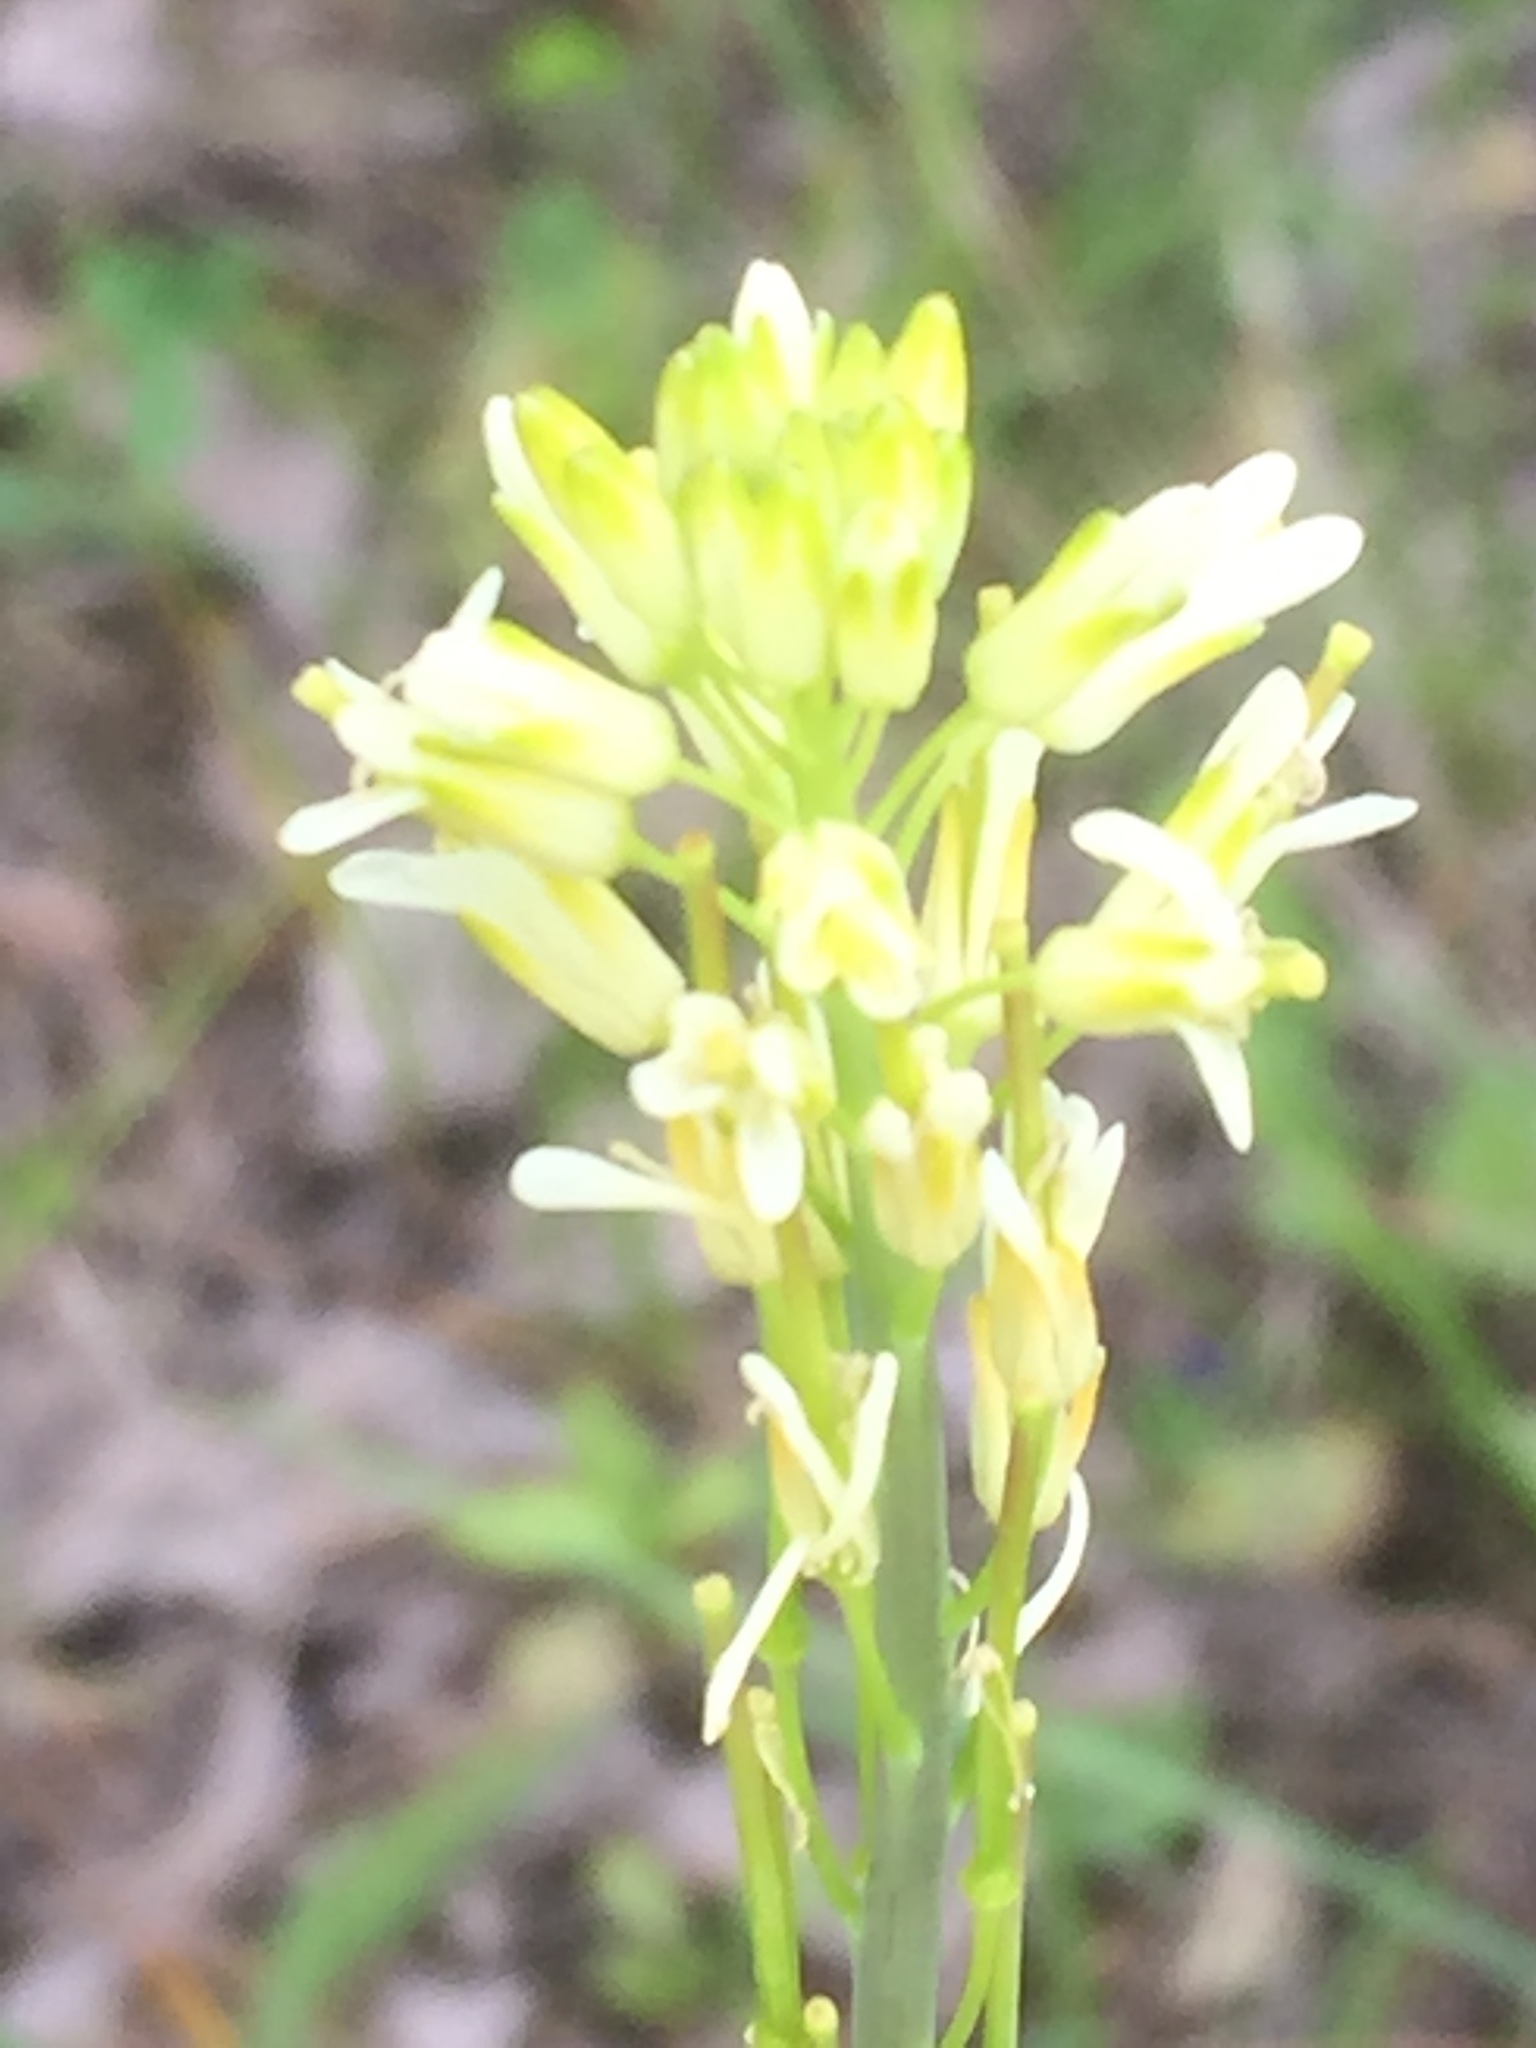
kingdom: Plantae
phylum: Tracheophyta
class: Magnoliopsida
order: Brassicales
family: Brassicaceae
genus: Turritis
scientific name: Turritis glabra
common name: Tower rockcress
